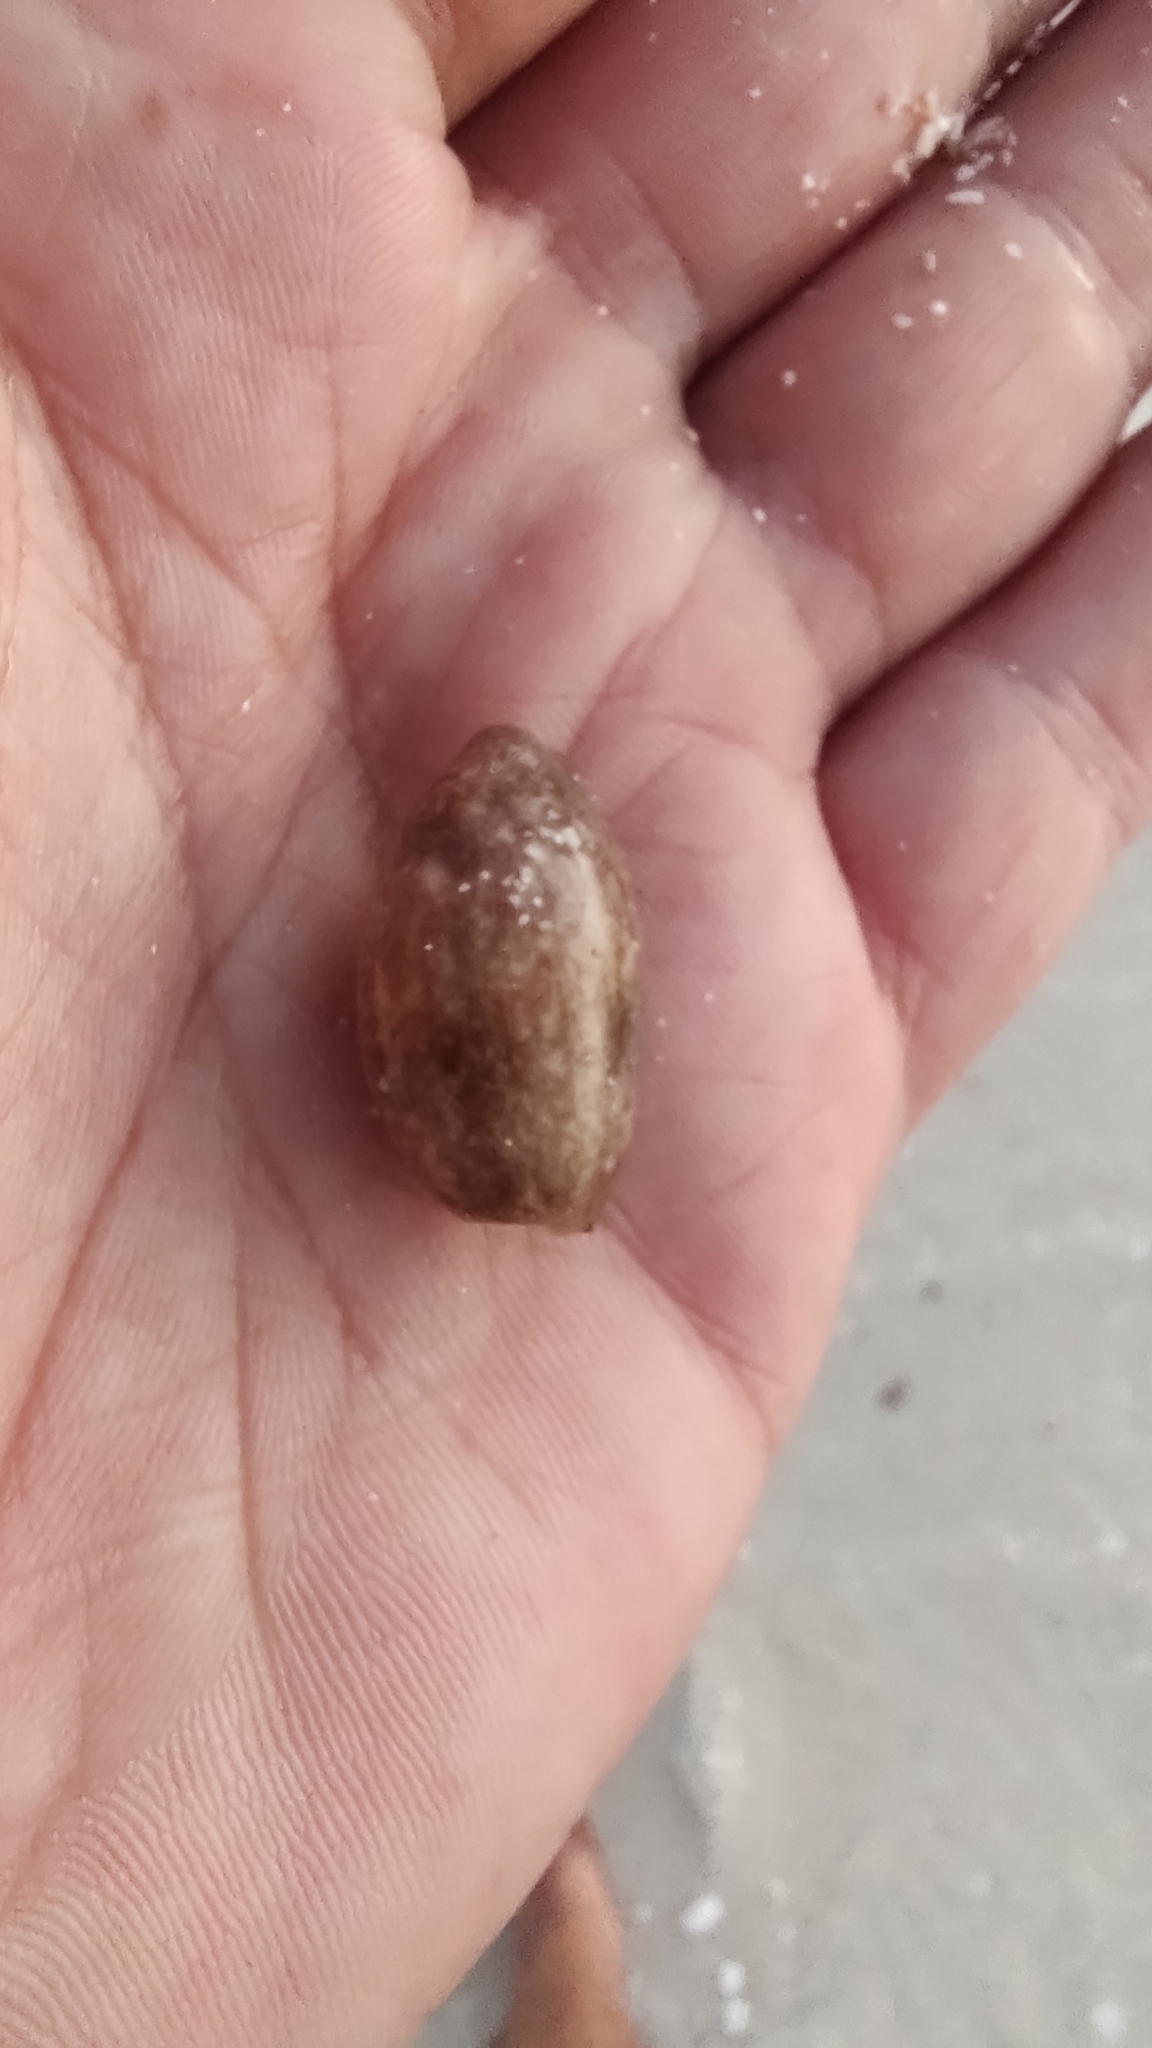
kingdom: Animalia
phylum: Mollusca
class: Gastropoda
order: Cephalaspidea
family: Bullidae
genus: Bulla
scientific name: Bulla occidentalis
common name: Common west-indian bubble
